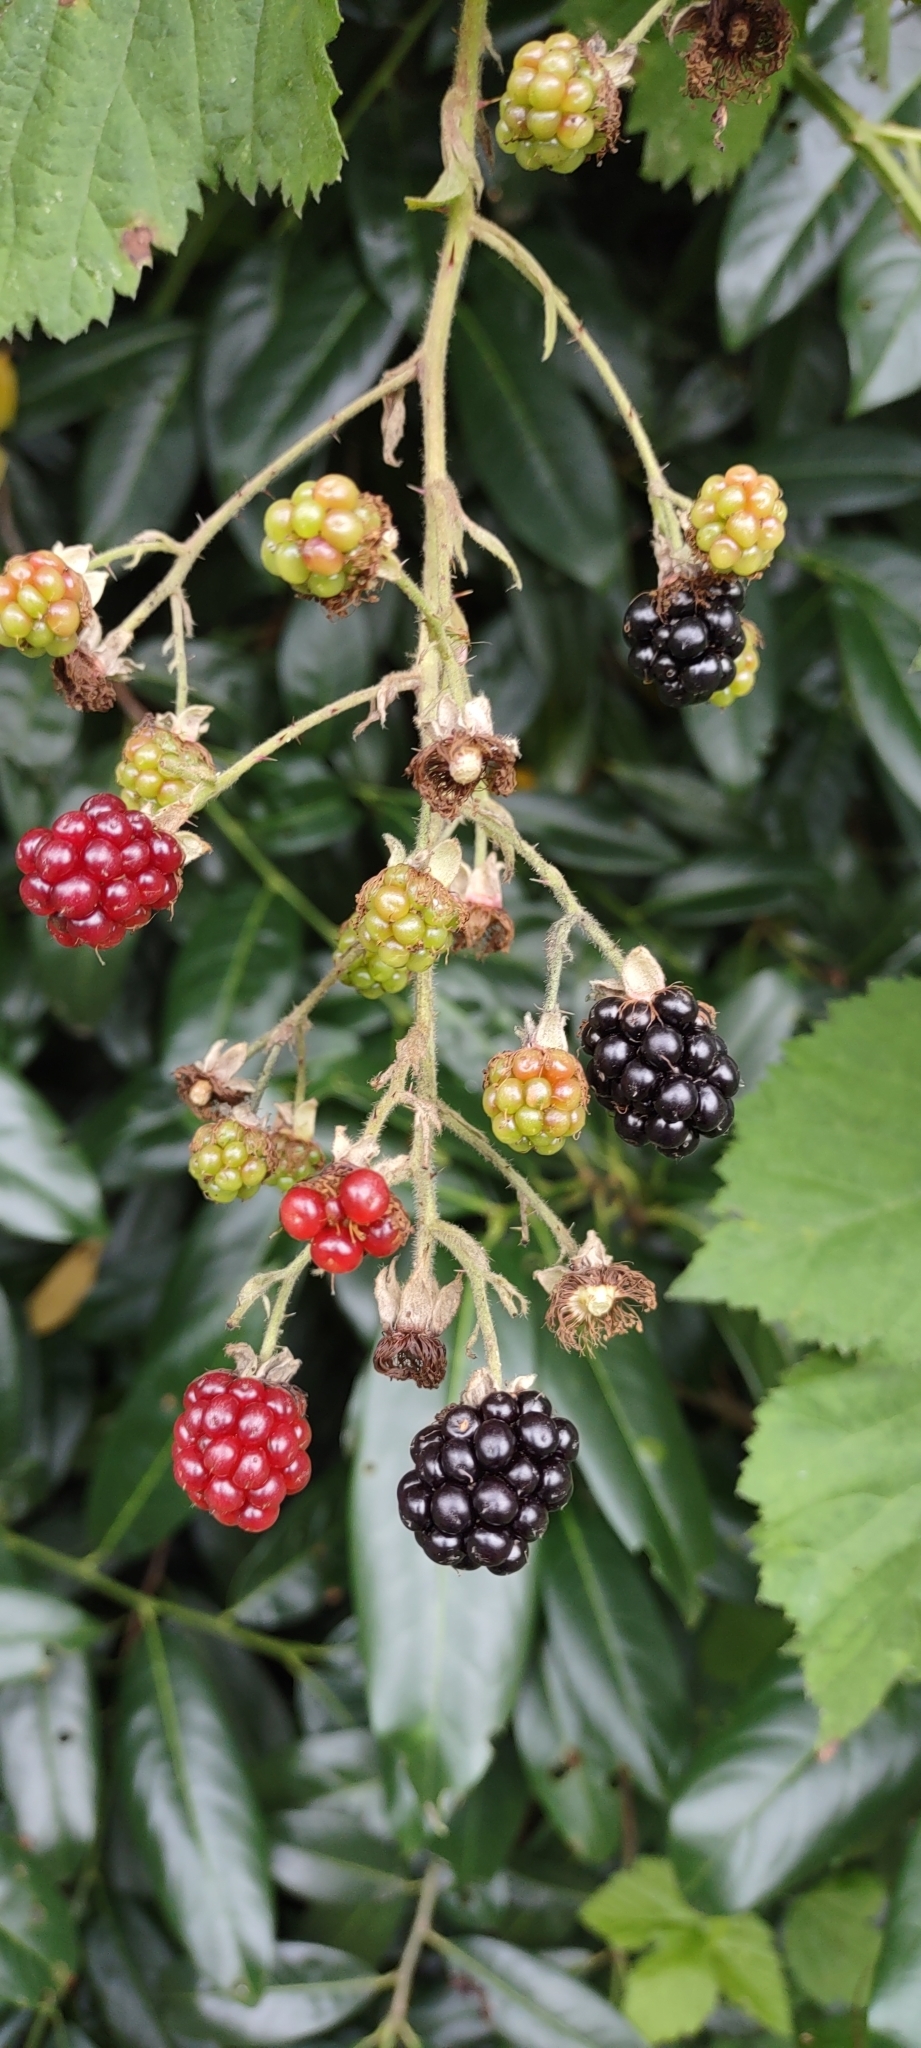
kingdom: Plantae
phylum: Tracheophyta
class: Magnoliopsida
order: Rosales
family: Rosaceae
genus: Rubus
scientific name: Rubus armeniacus
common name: Himalayan blackberry
